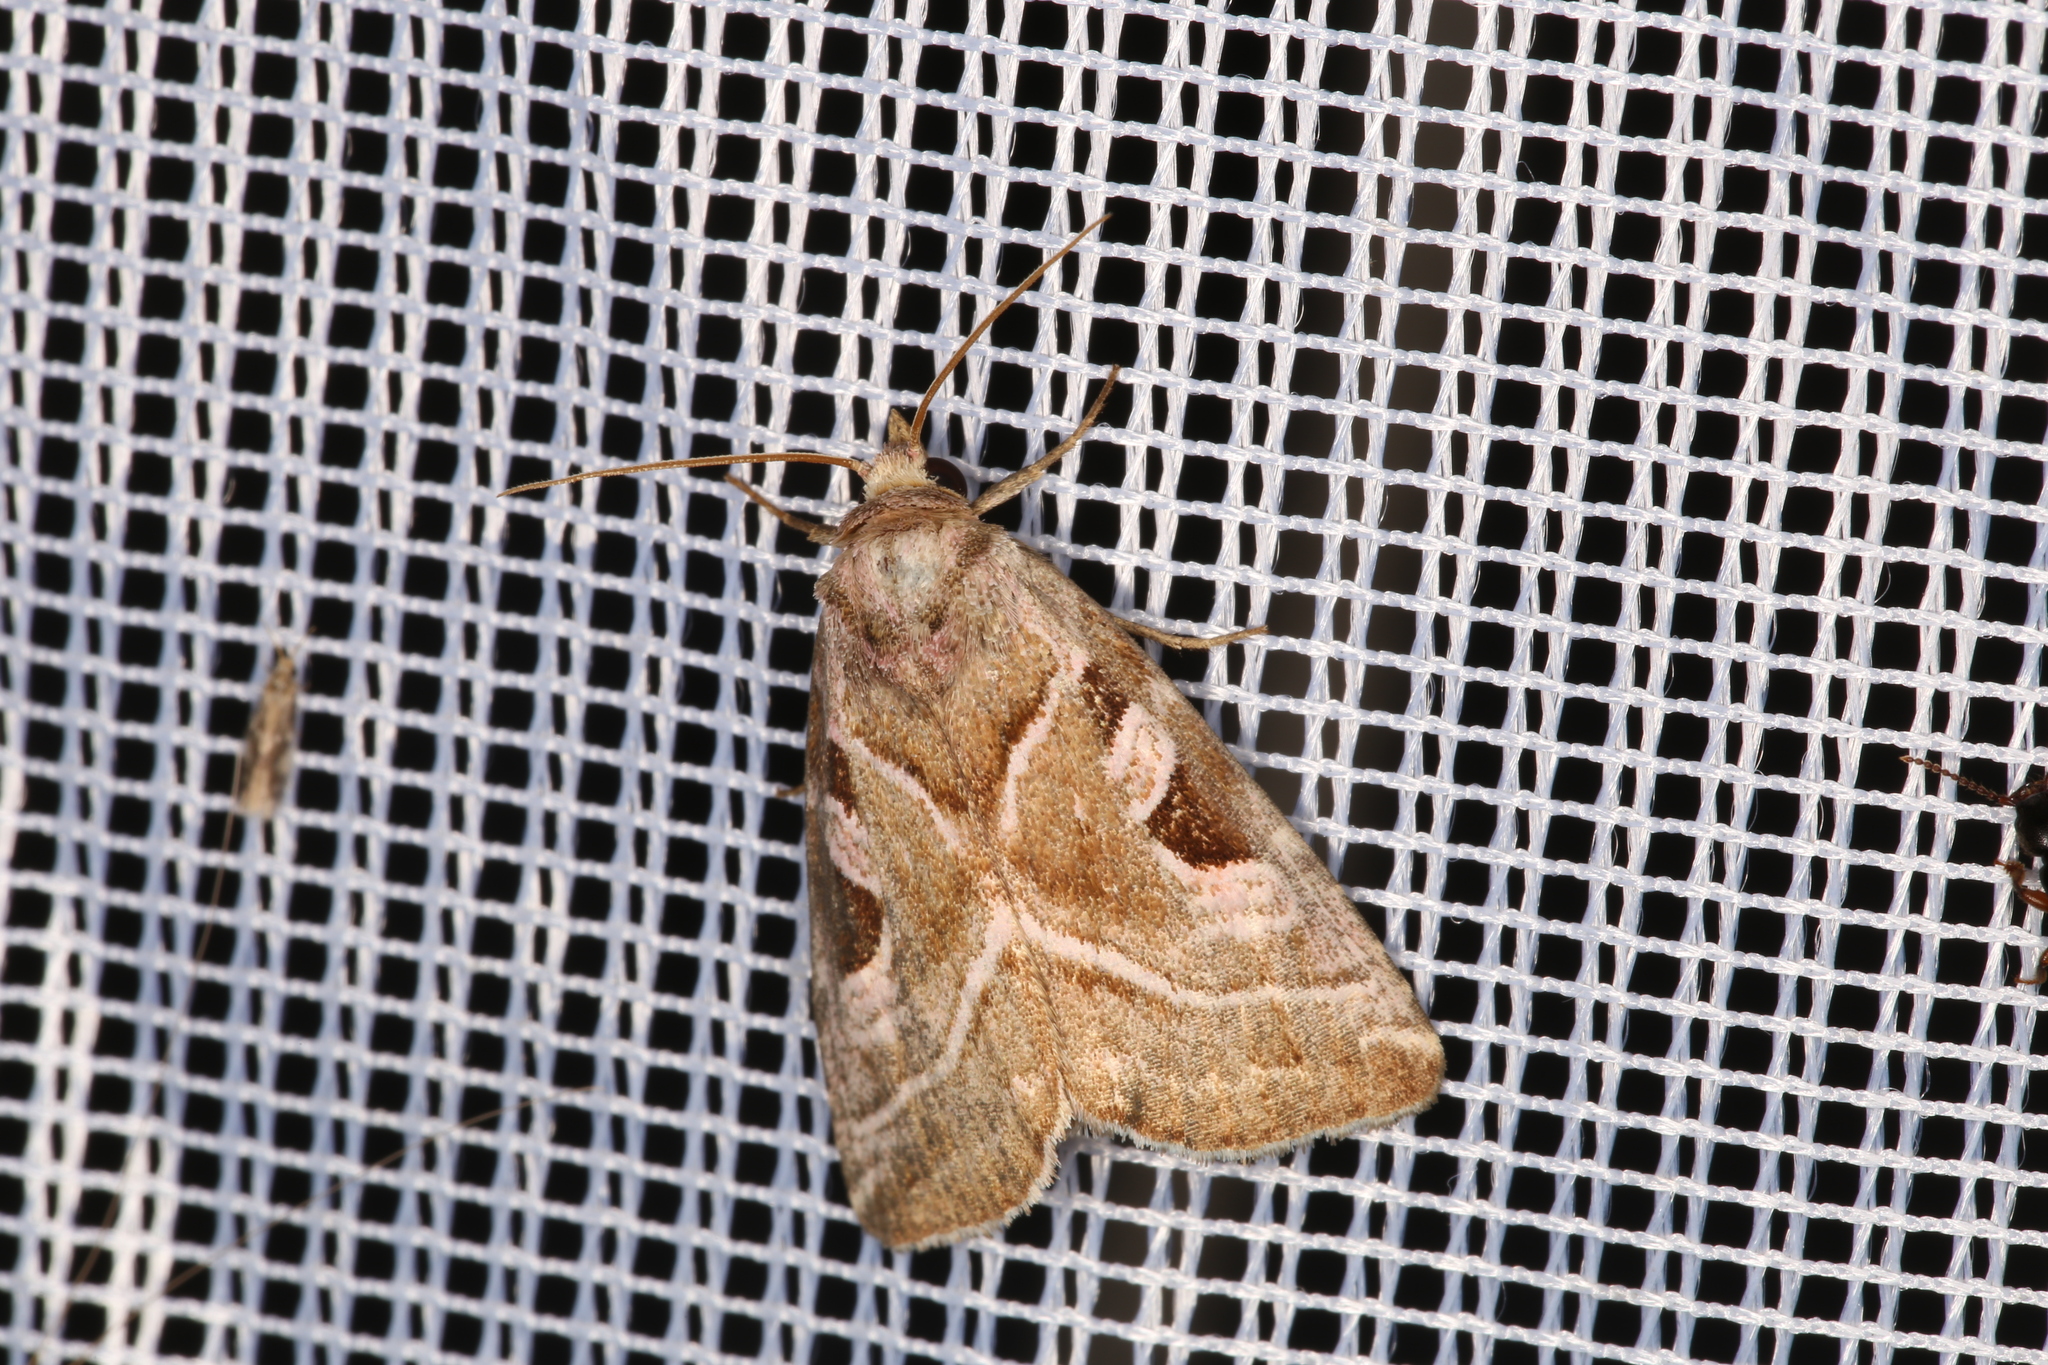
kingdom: Animalia
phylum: Arthropoda
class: Insecta
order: Lepidoptera
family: Noctuidae
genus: Eucarta
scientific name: Eucarta virgo
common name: Silvery gem
